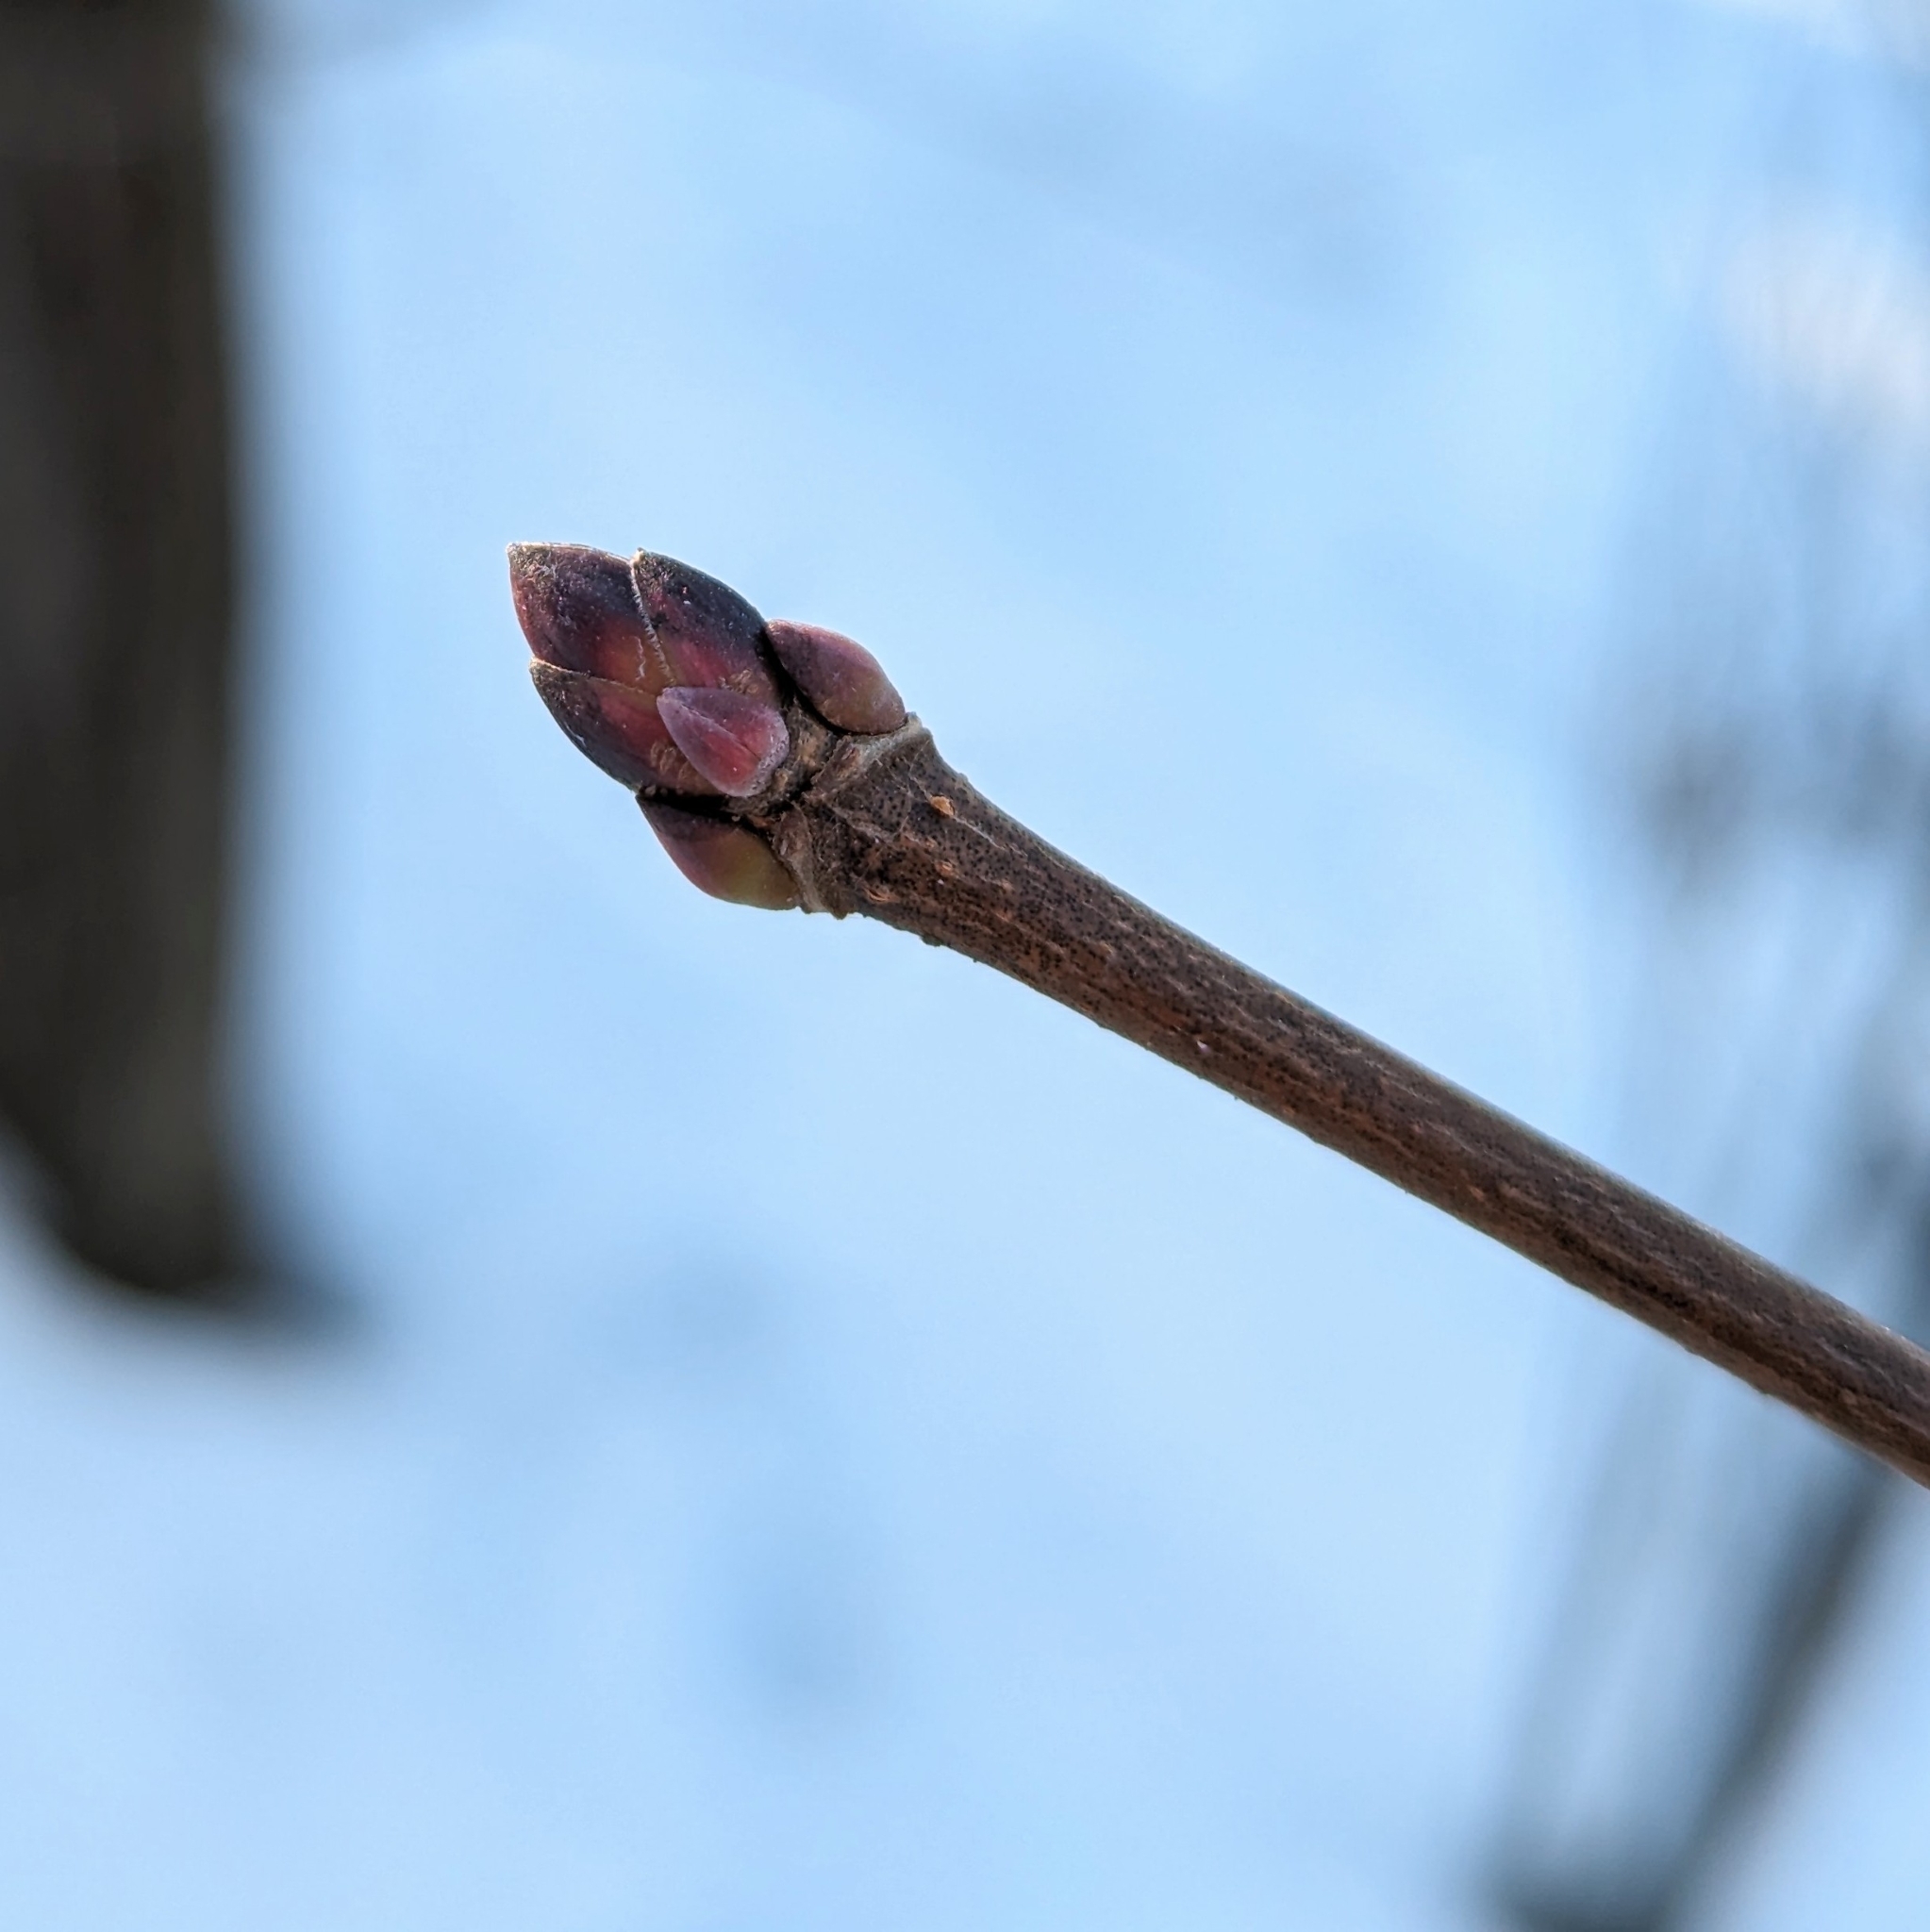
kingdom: Plantae
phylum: Tracheophyta
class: Magnoliopsida
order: Sapindales
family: Sapindaceae
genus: Acer
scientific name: Acer platanoides
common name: Norway maple
